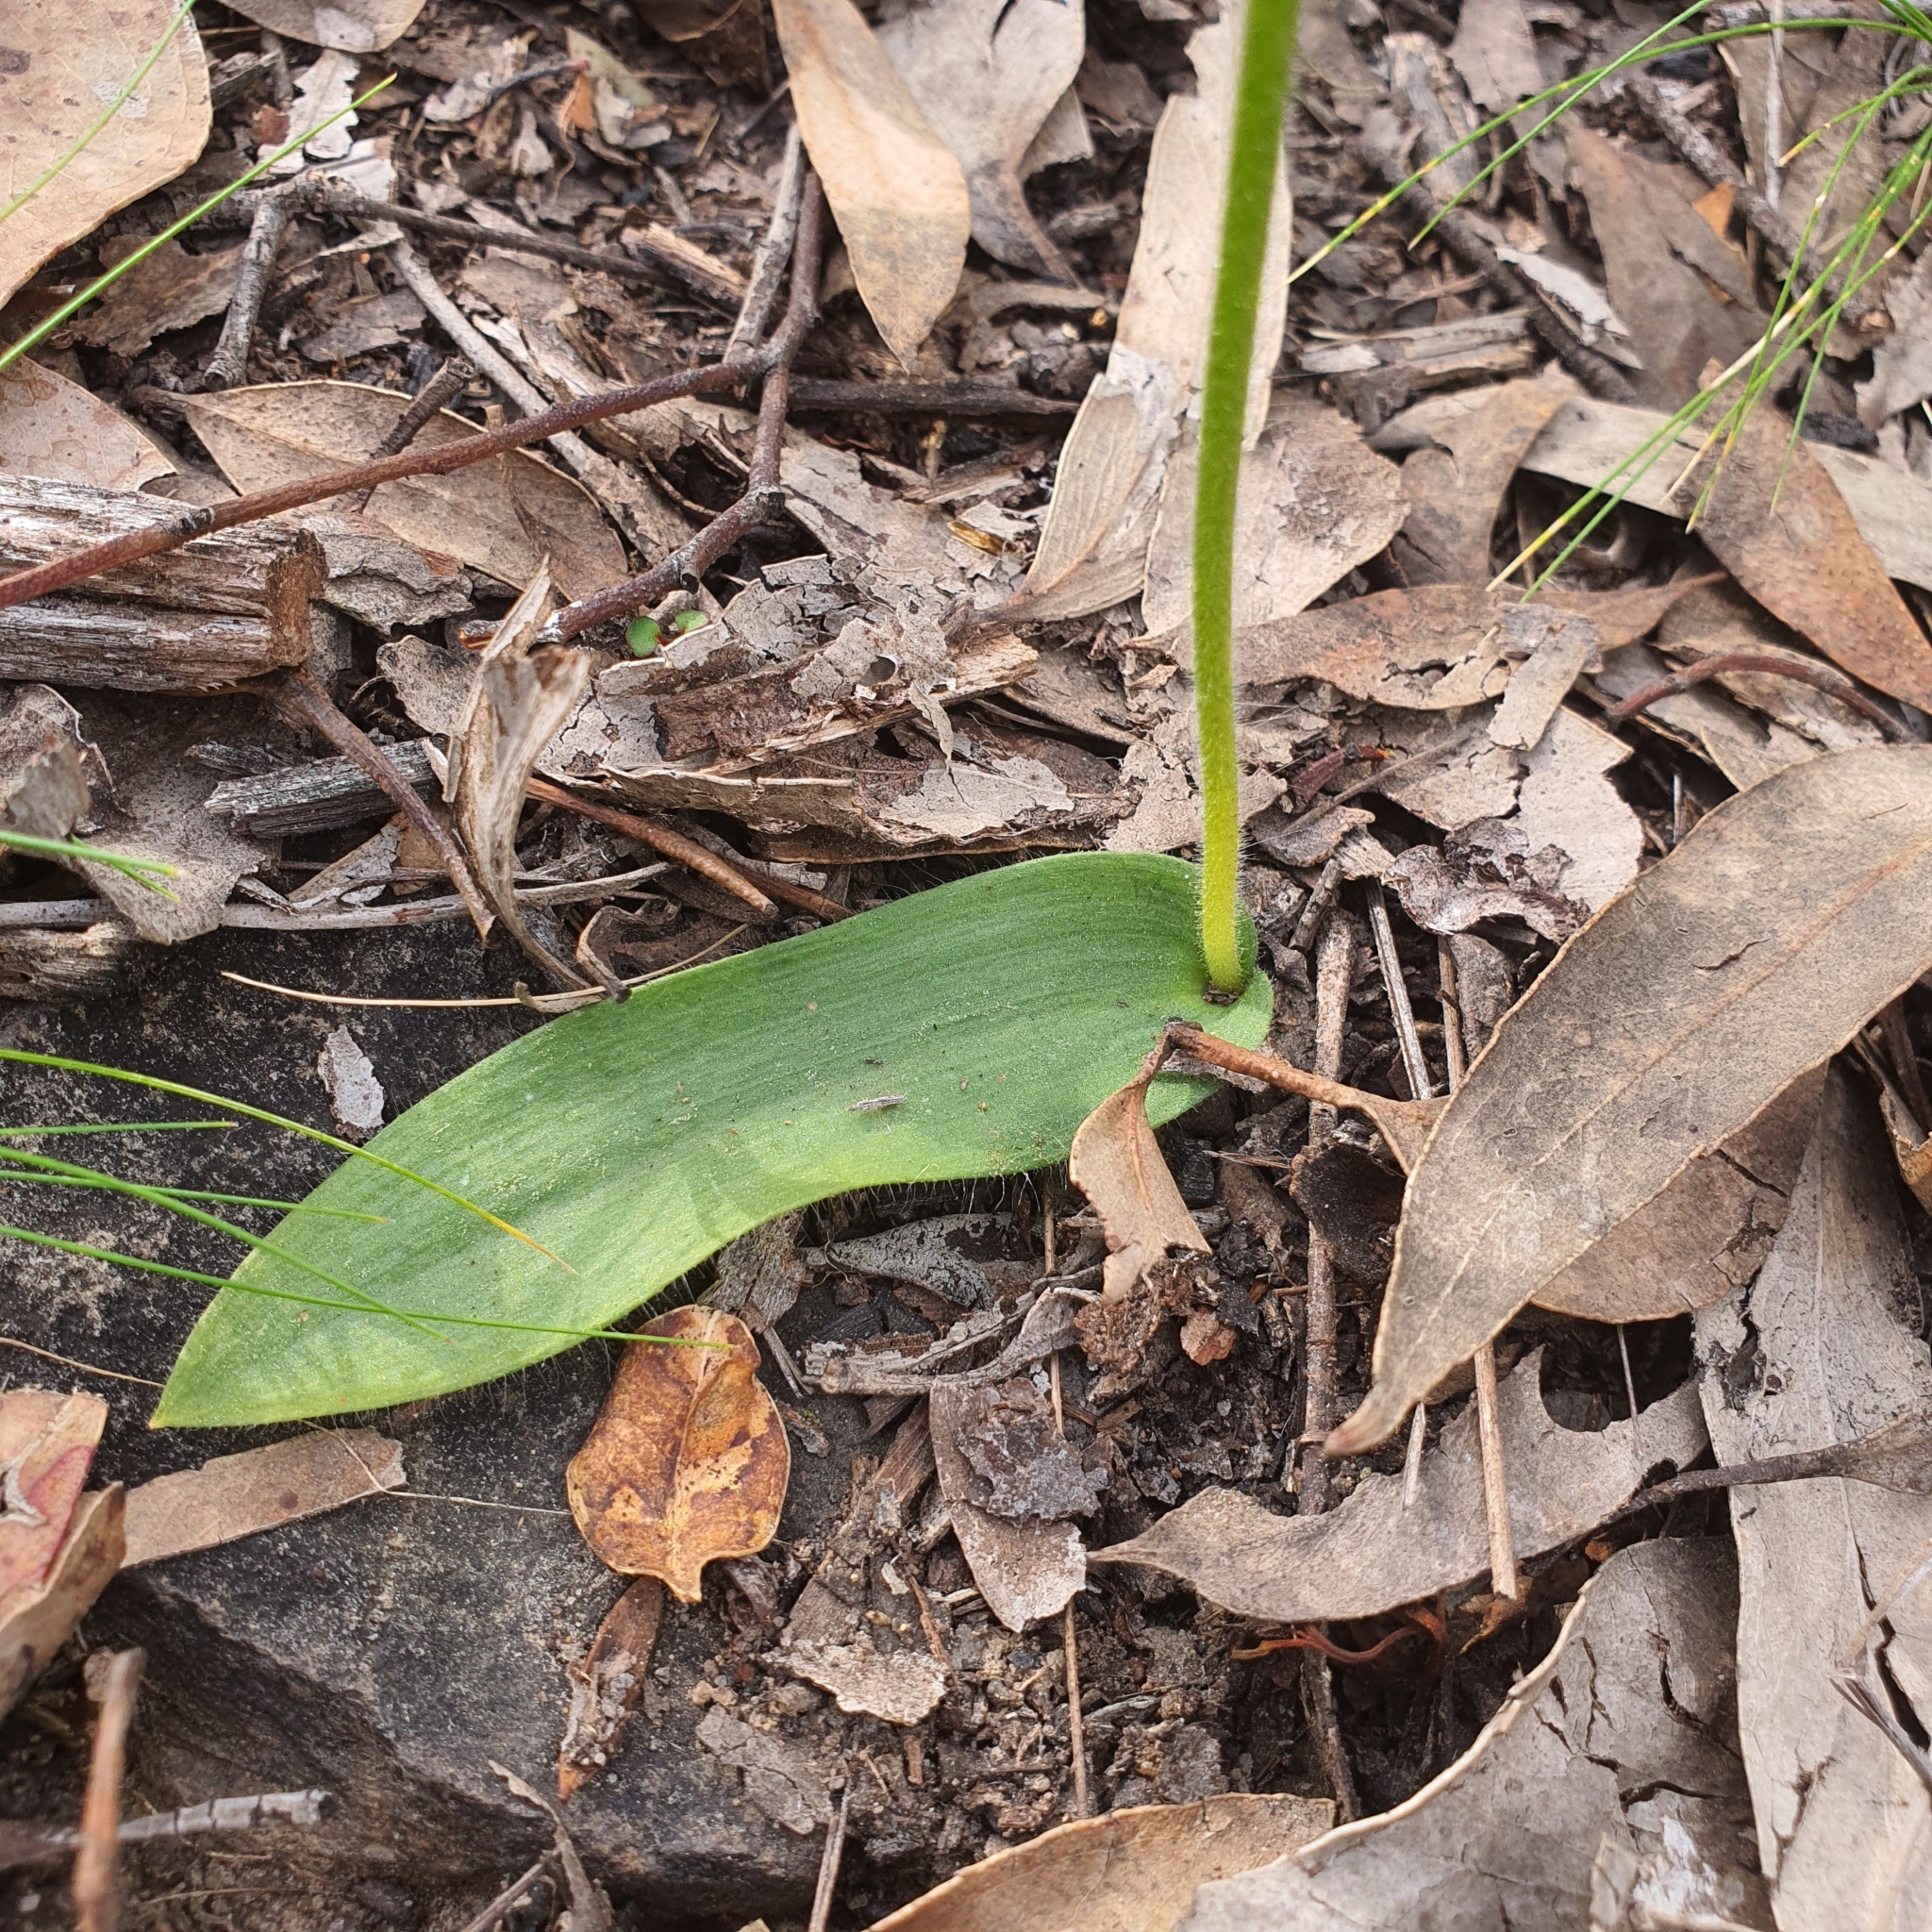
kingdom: Plantae
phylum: Tracheophyta
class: Liliopsida
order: Asparagales
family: Orchidaceae
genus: Caladenia
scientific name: Caladenia major
